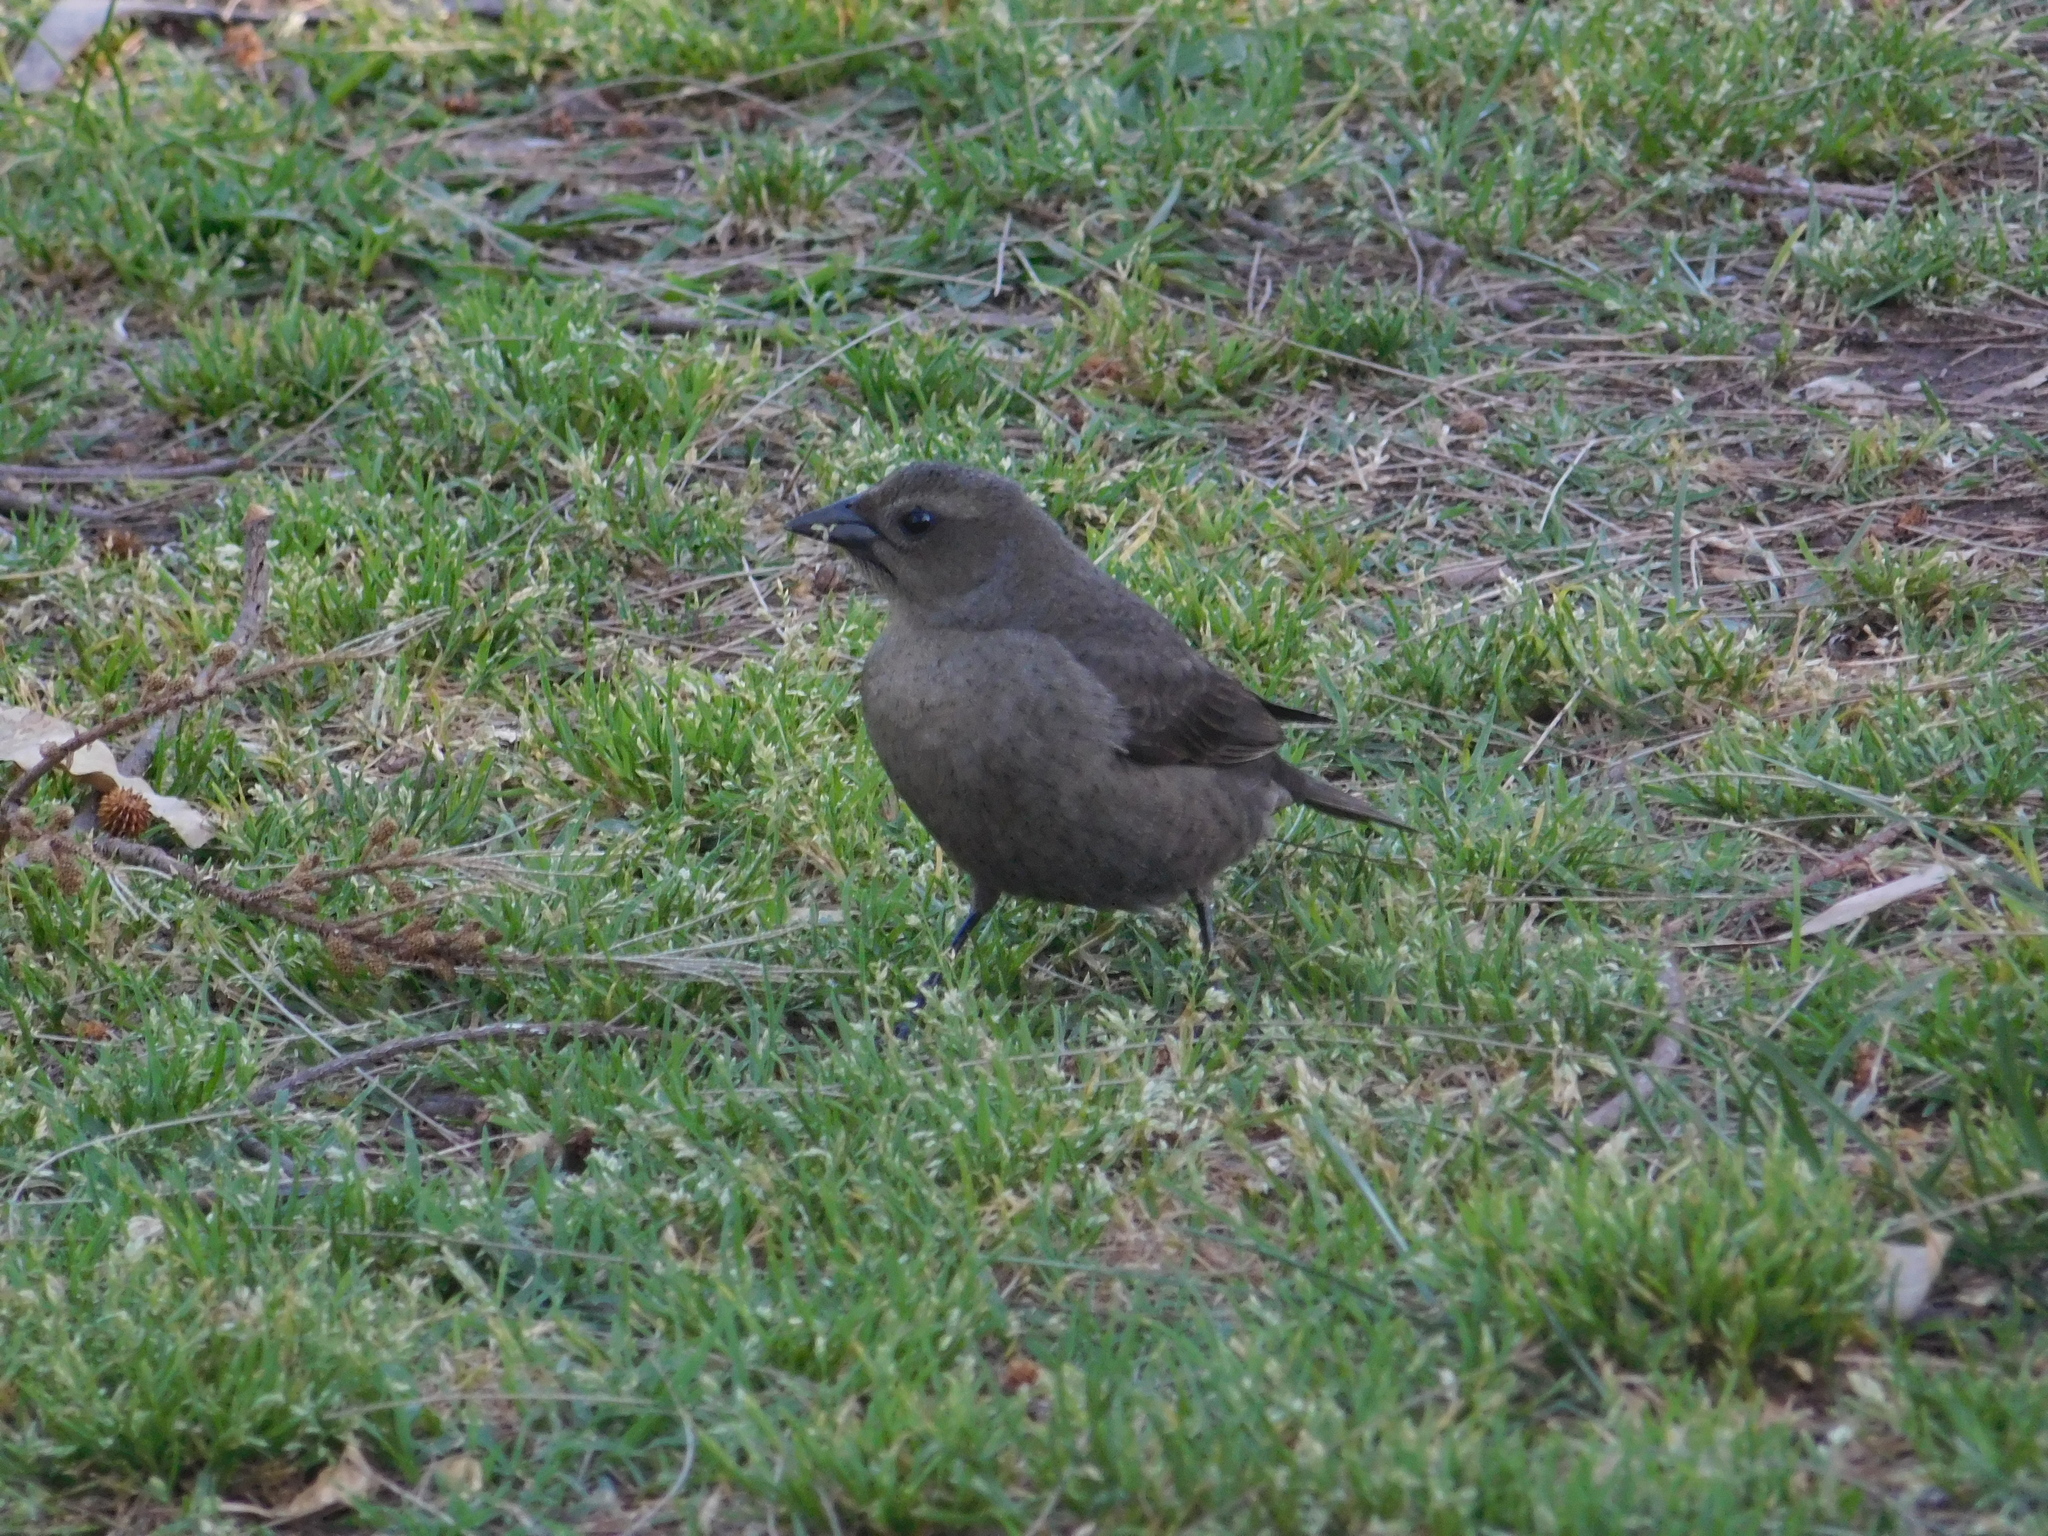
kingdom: Animalia
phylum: Chordata
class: Aves
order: Passeriformes
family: Icteridae
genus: Molothrus
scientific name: Molothrus bonariensis
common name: Shiny cowbird
